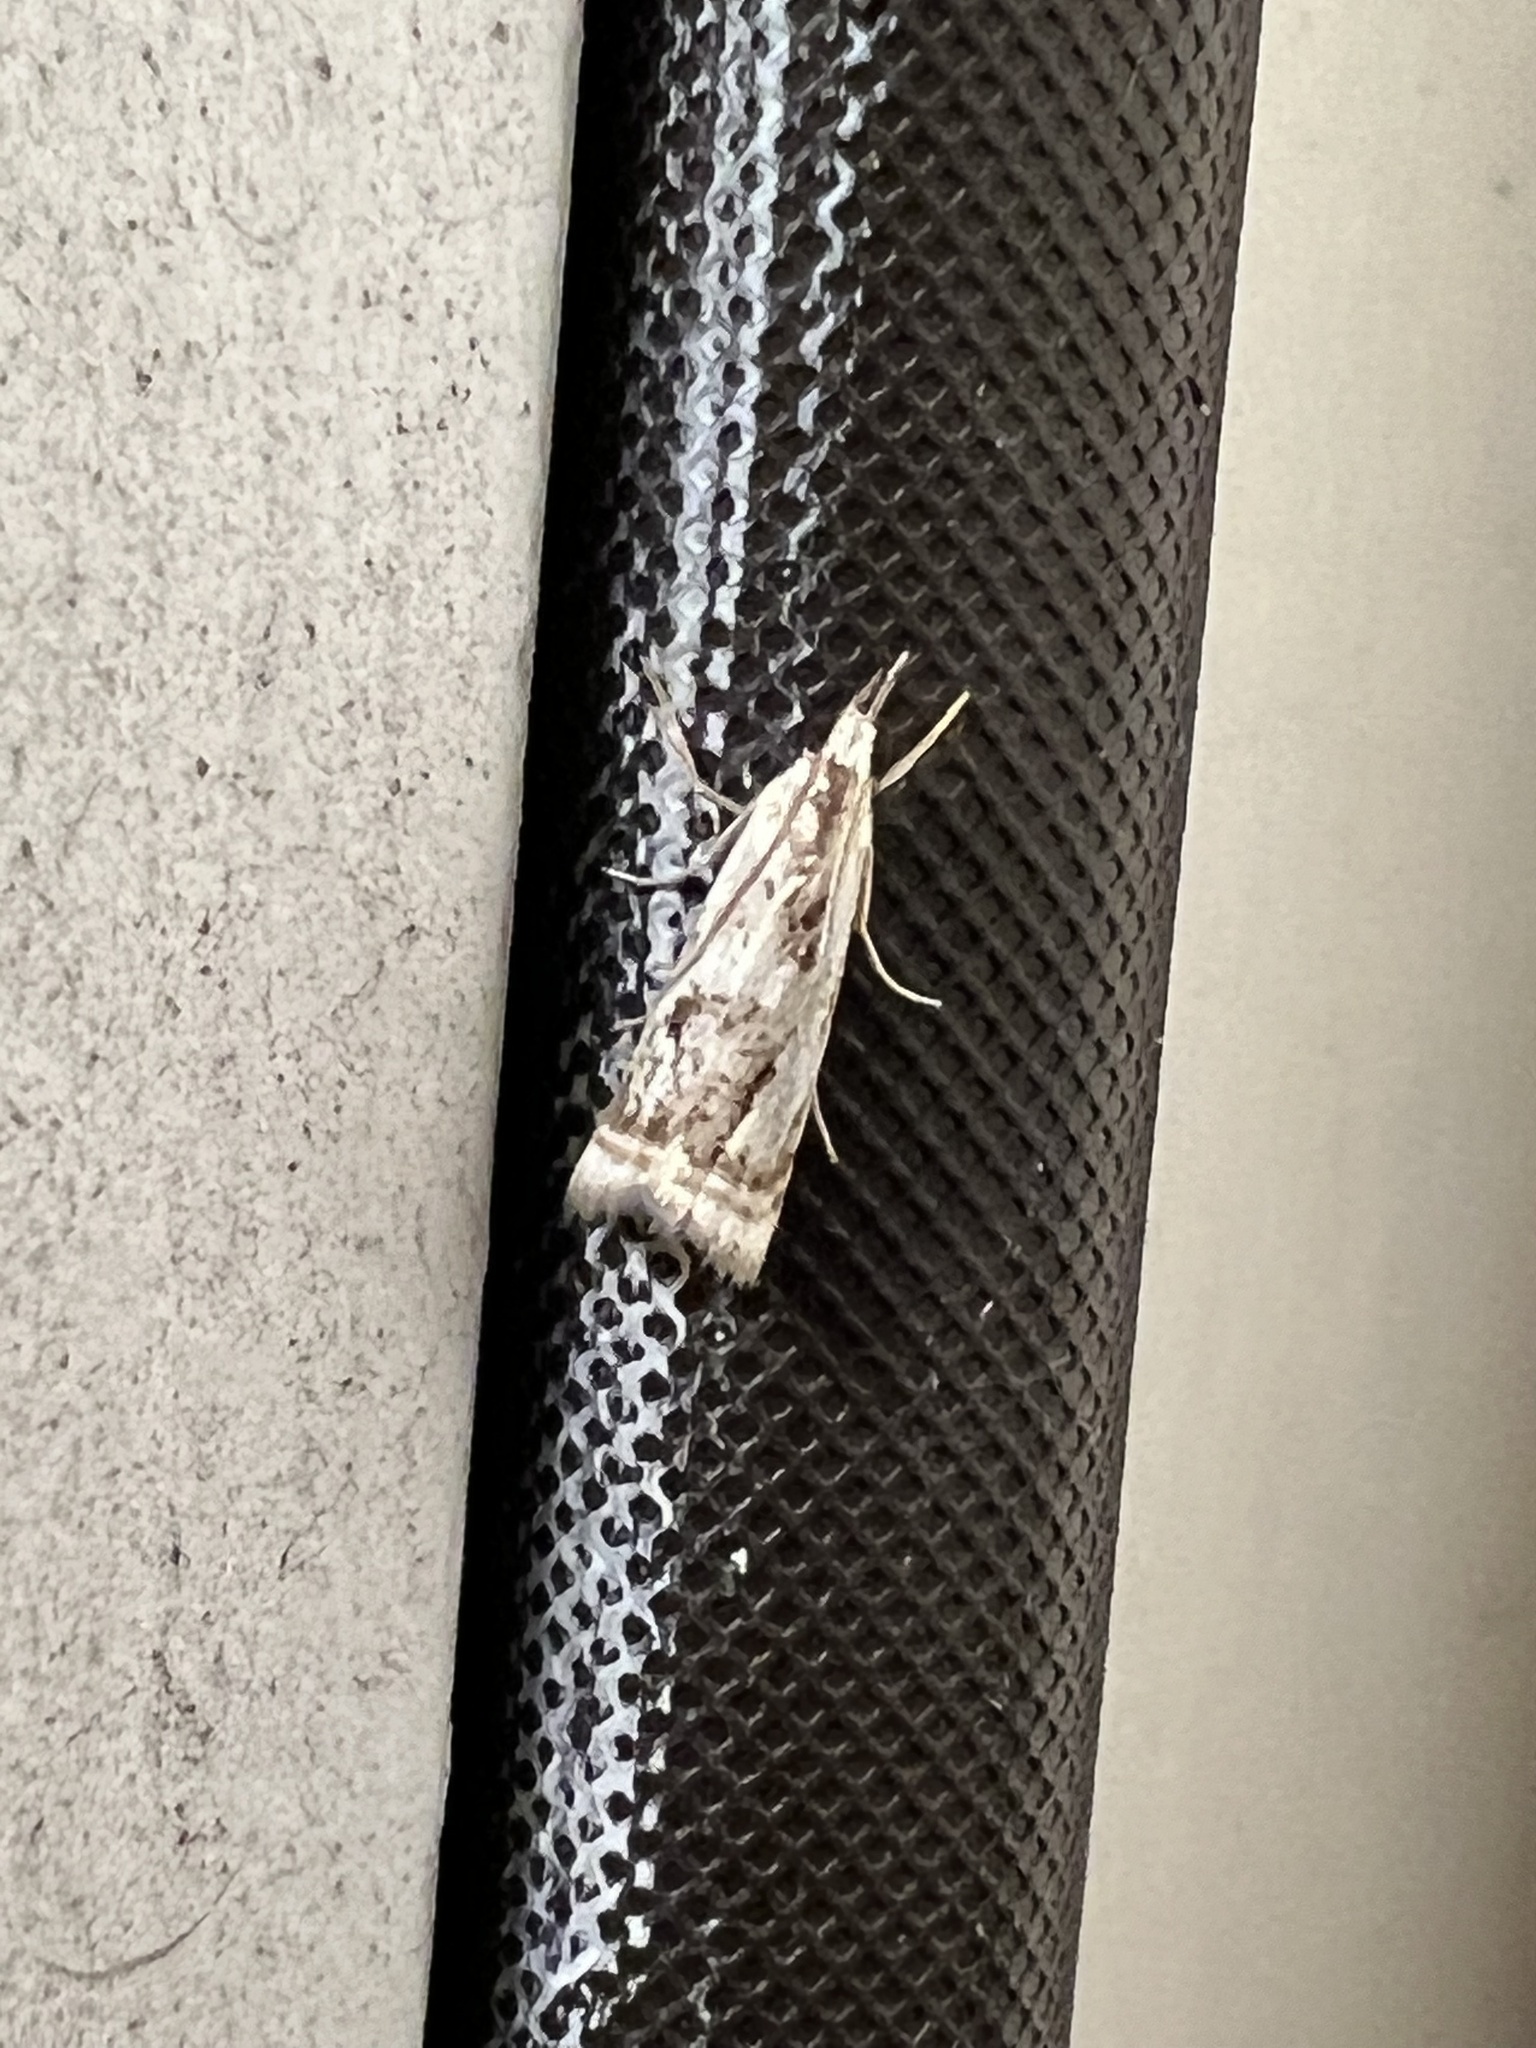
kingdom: Animalia
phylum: Arthropoda
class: Insecta
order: Lepidoptera
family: Crambidae
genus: Microcrambus
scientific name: Microcrambus elegans
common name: Elegant grass-veneer
